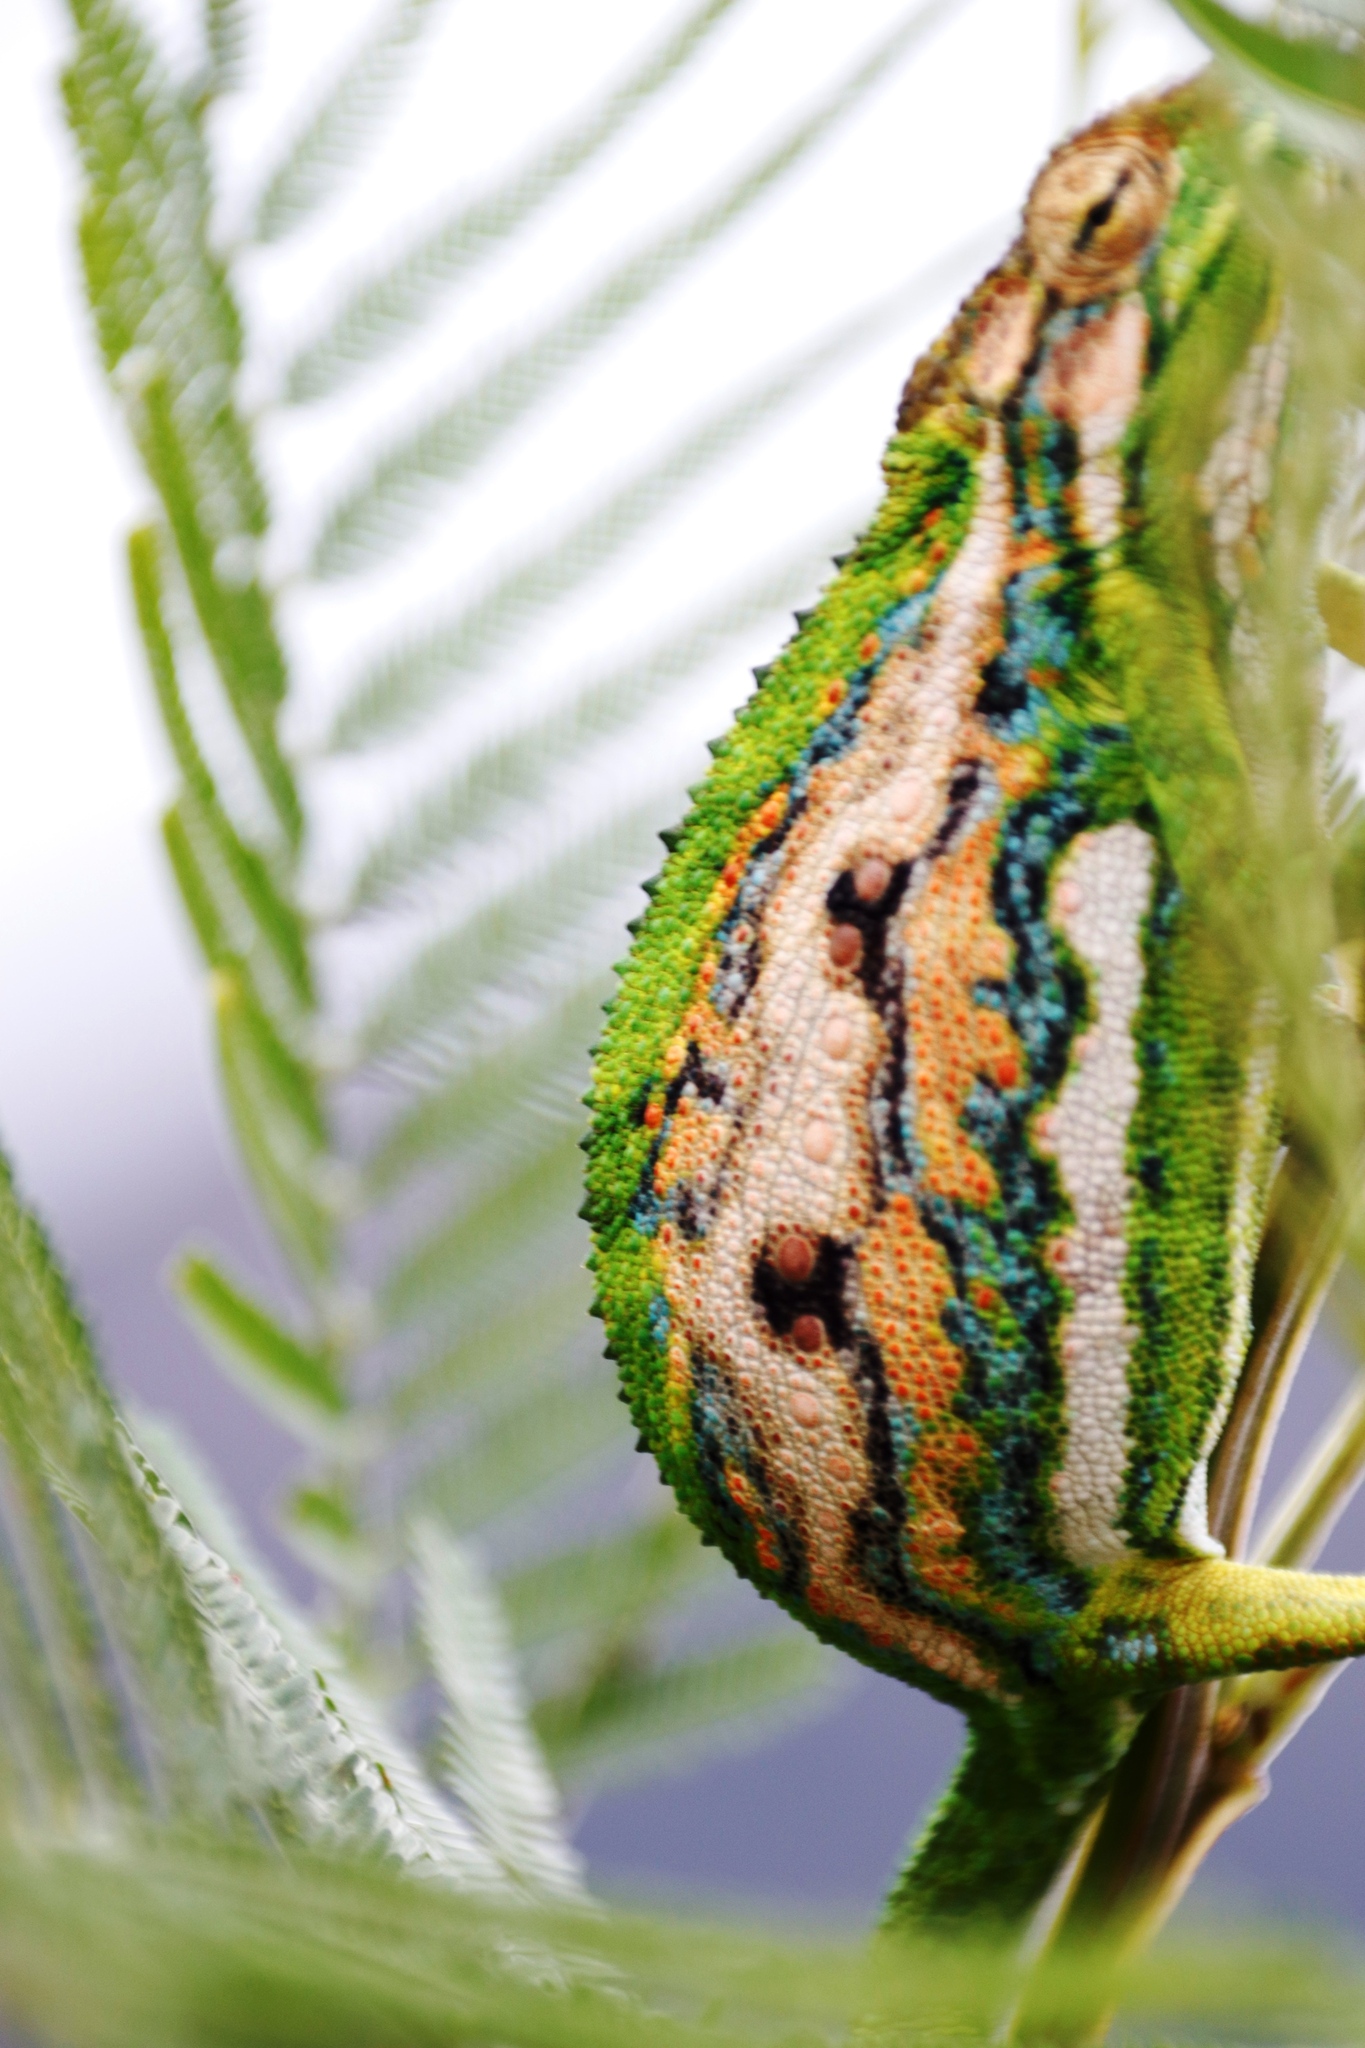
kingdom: Plantae
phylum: Tracheophyta
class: Magnoliopsida
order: Fabales
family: Fabaceae
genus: Acacia
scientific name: Acacia mearnsii
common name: Black wattle
